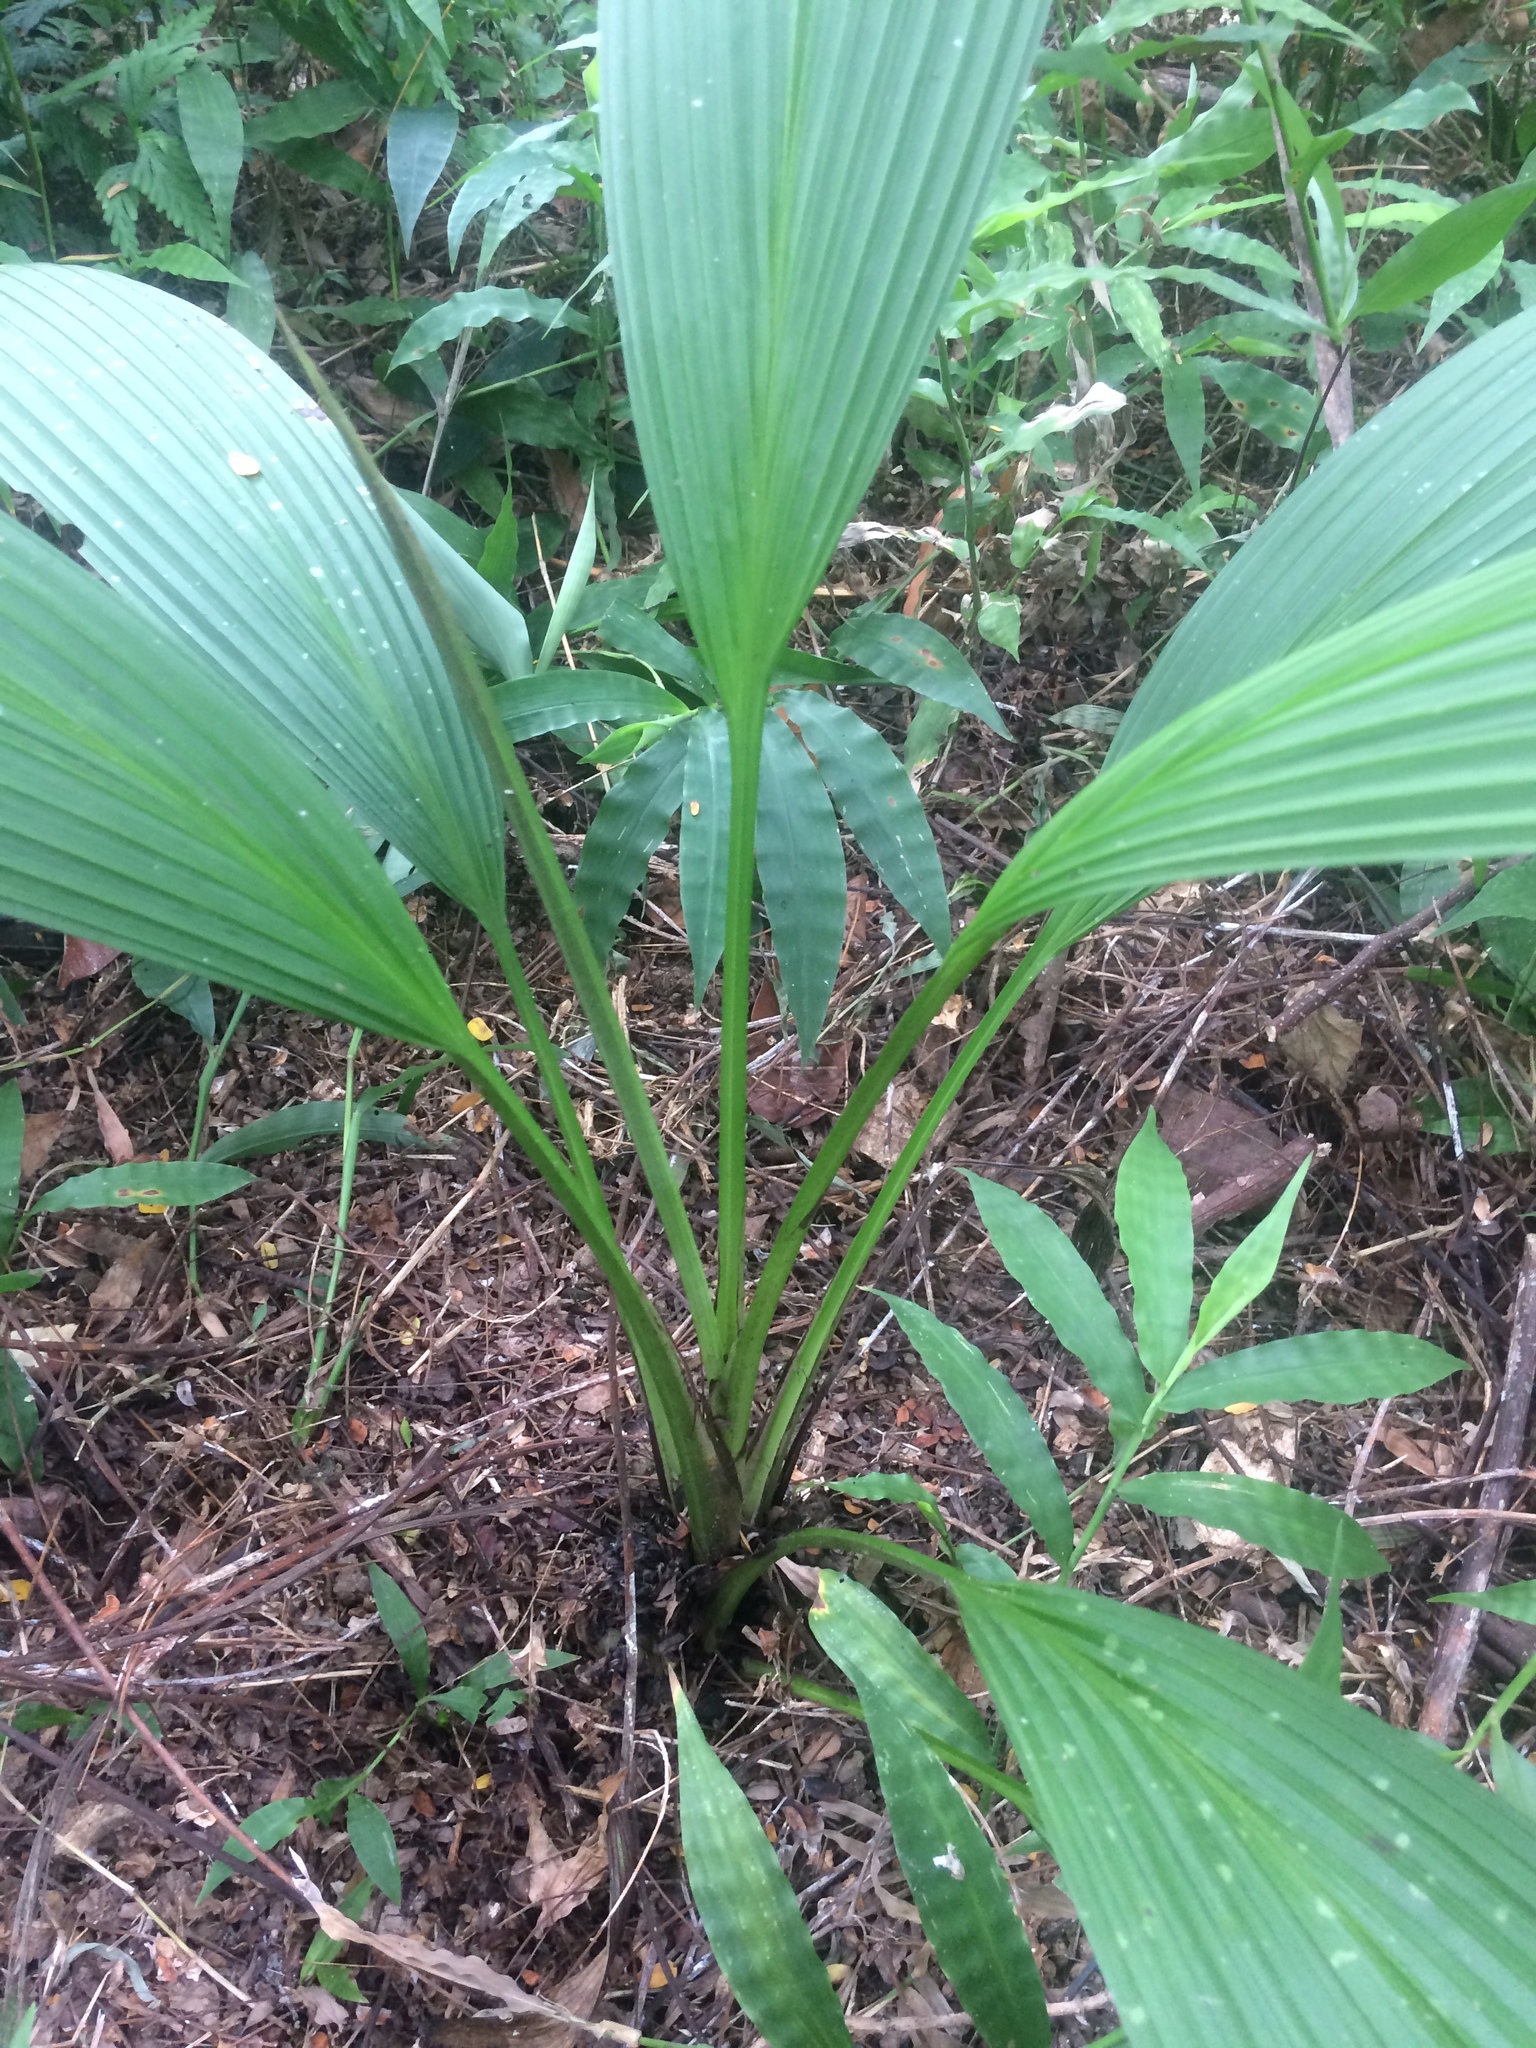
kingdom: Plantae
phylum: Tracheophyta
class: Liliopsida
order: Asparagales
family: Hypoxidaceae
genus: Curculigo
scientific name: Curculigo capitulata
